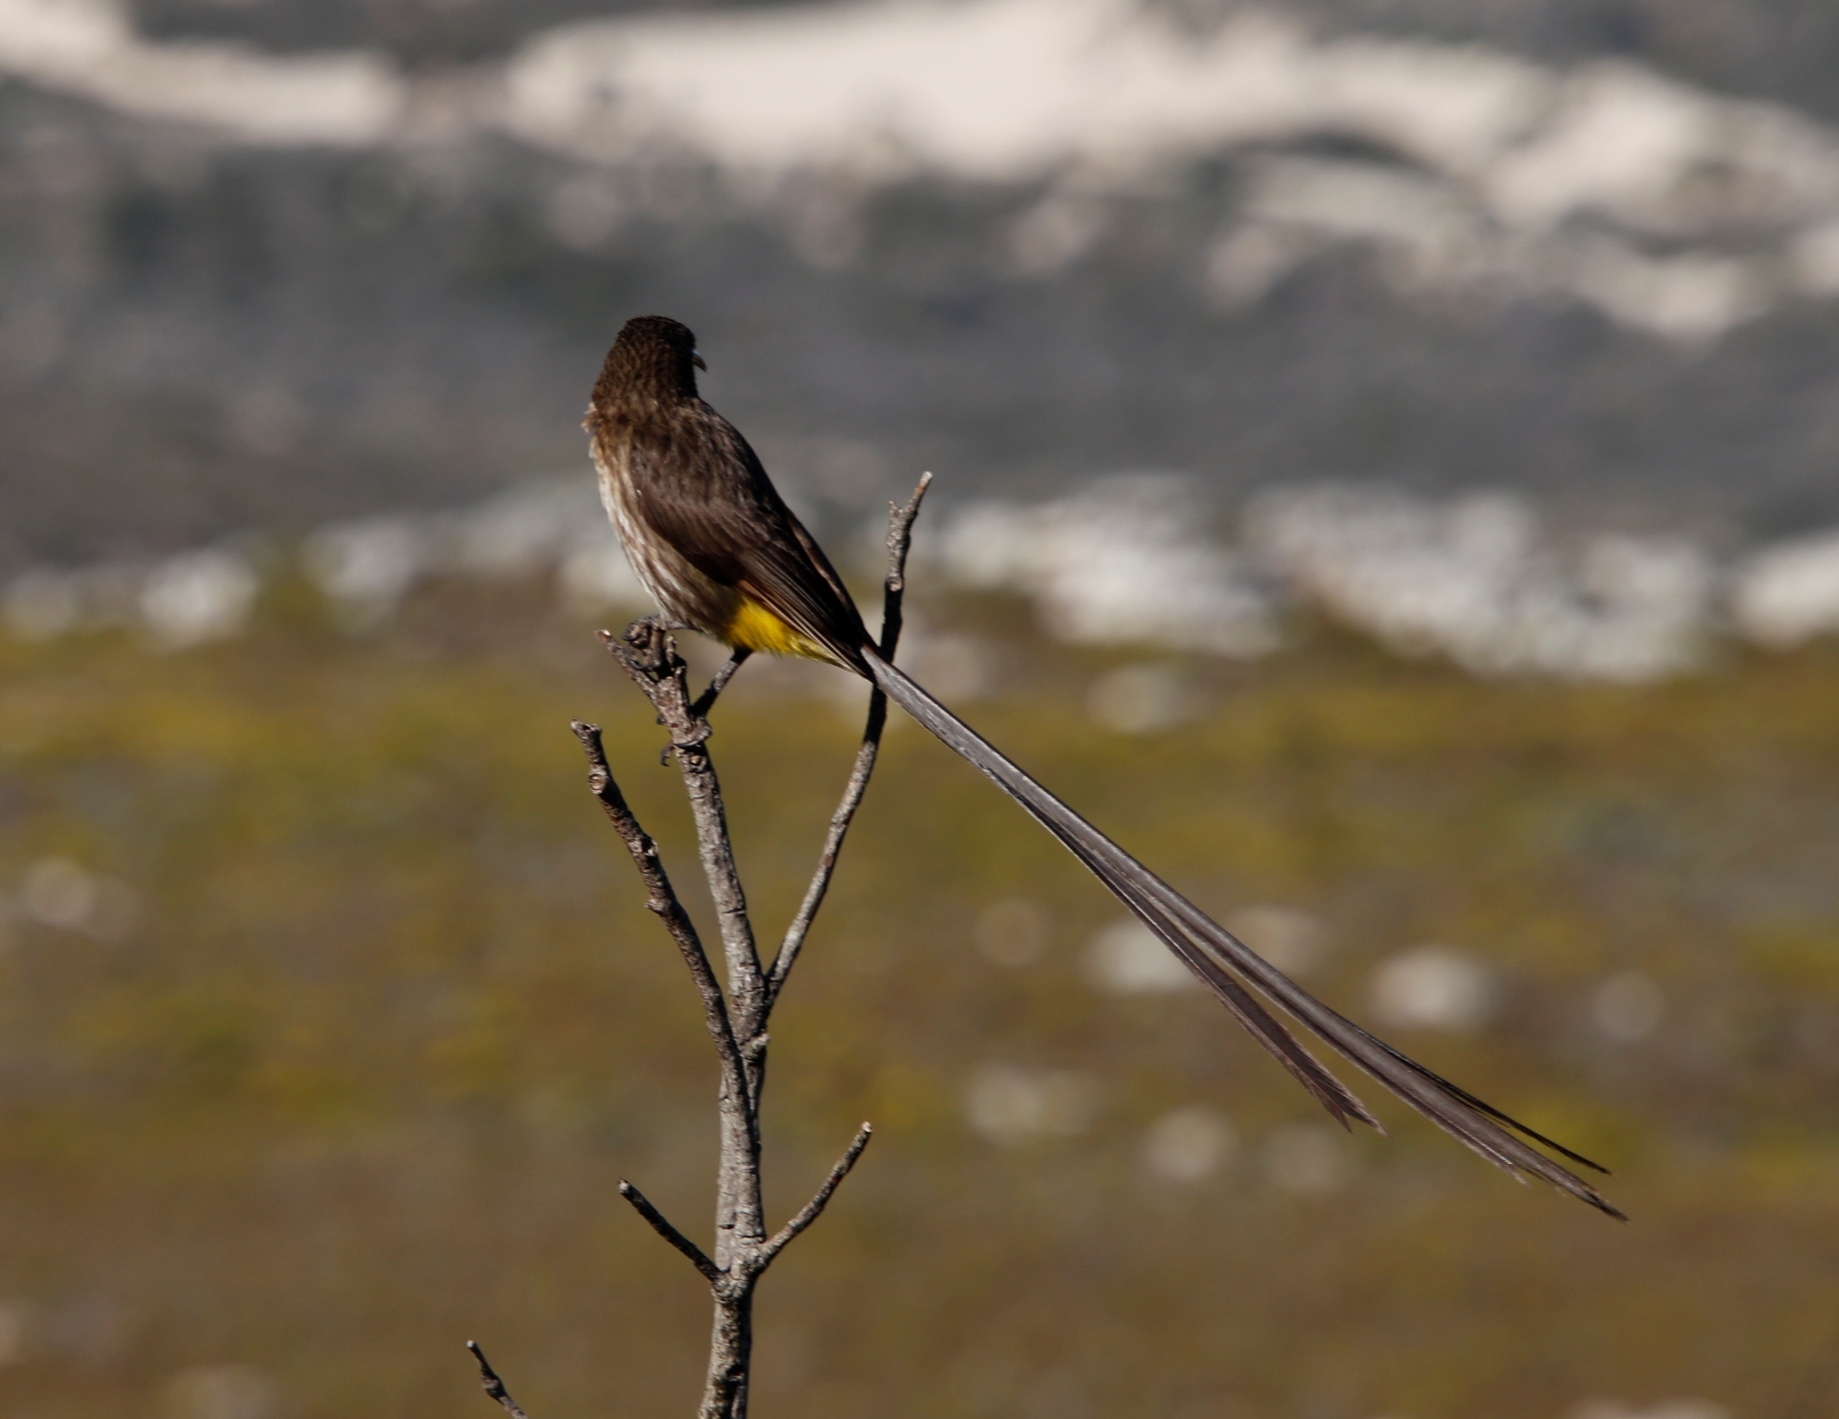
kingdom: Animalia
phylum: Chordata
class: Aves
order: Passeriformes
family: Promeropidae
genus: Promerops
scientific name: Promerops cafer
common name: Cape sugarbird
